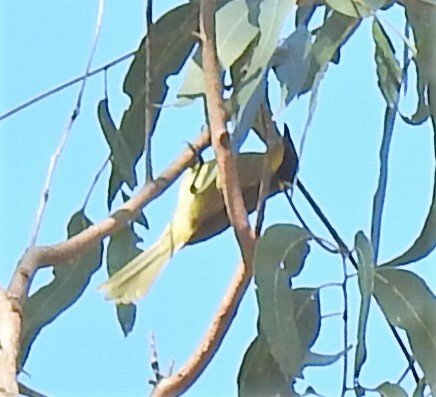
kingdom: Animalia
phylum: Chordata
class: Aves
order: Passeriformes
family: Meliphagidae
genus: Lichenostomus
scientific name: Lichenostomus melanops
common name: Yellow-tufted honeyeater
